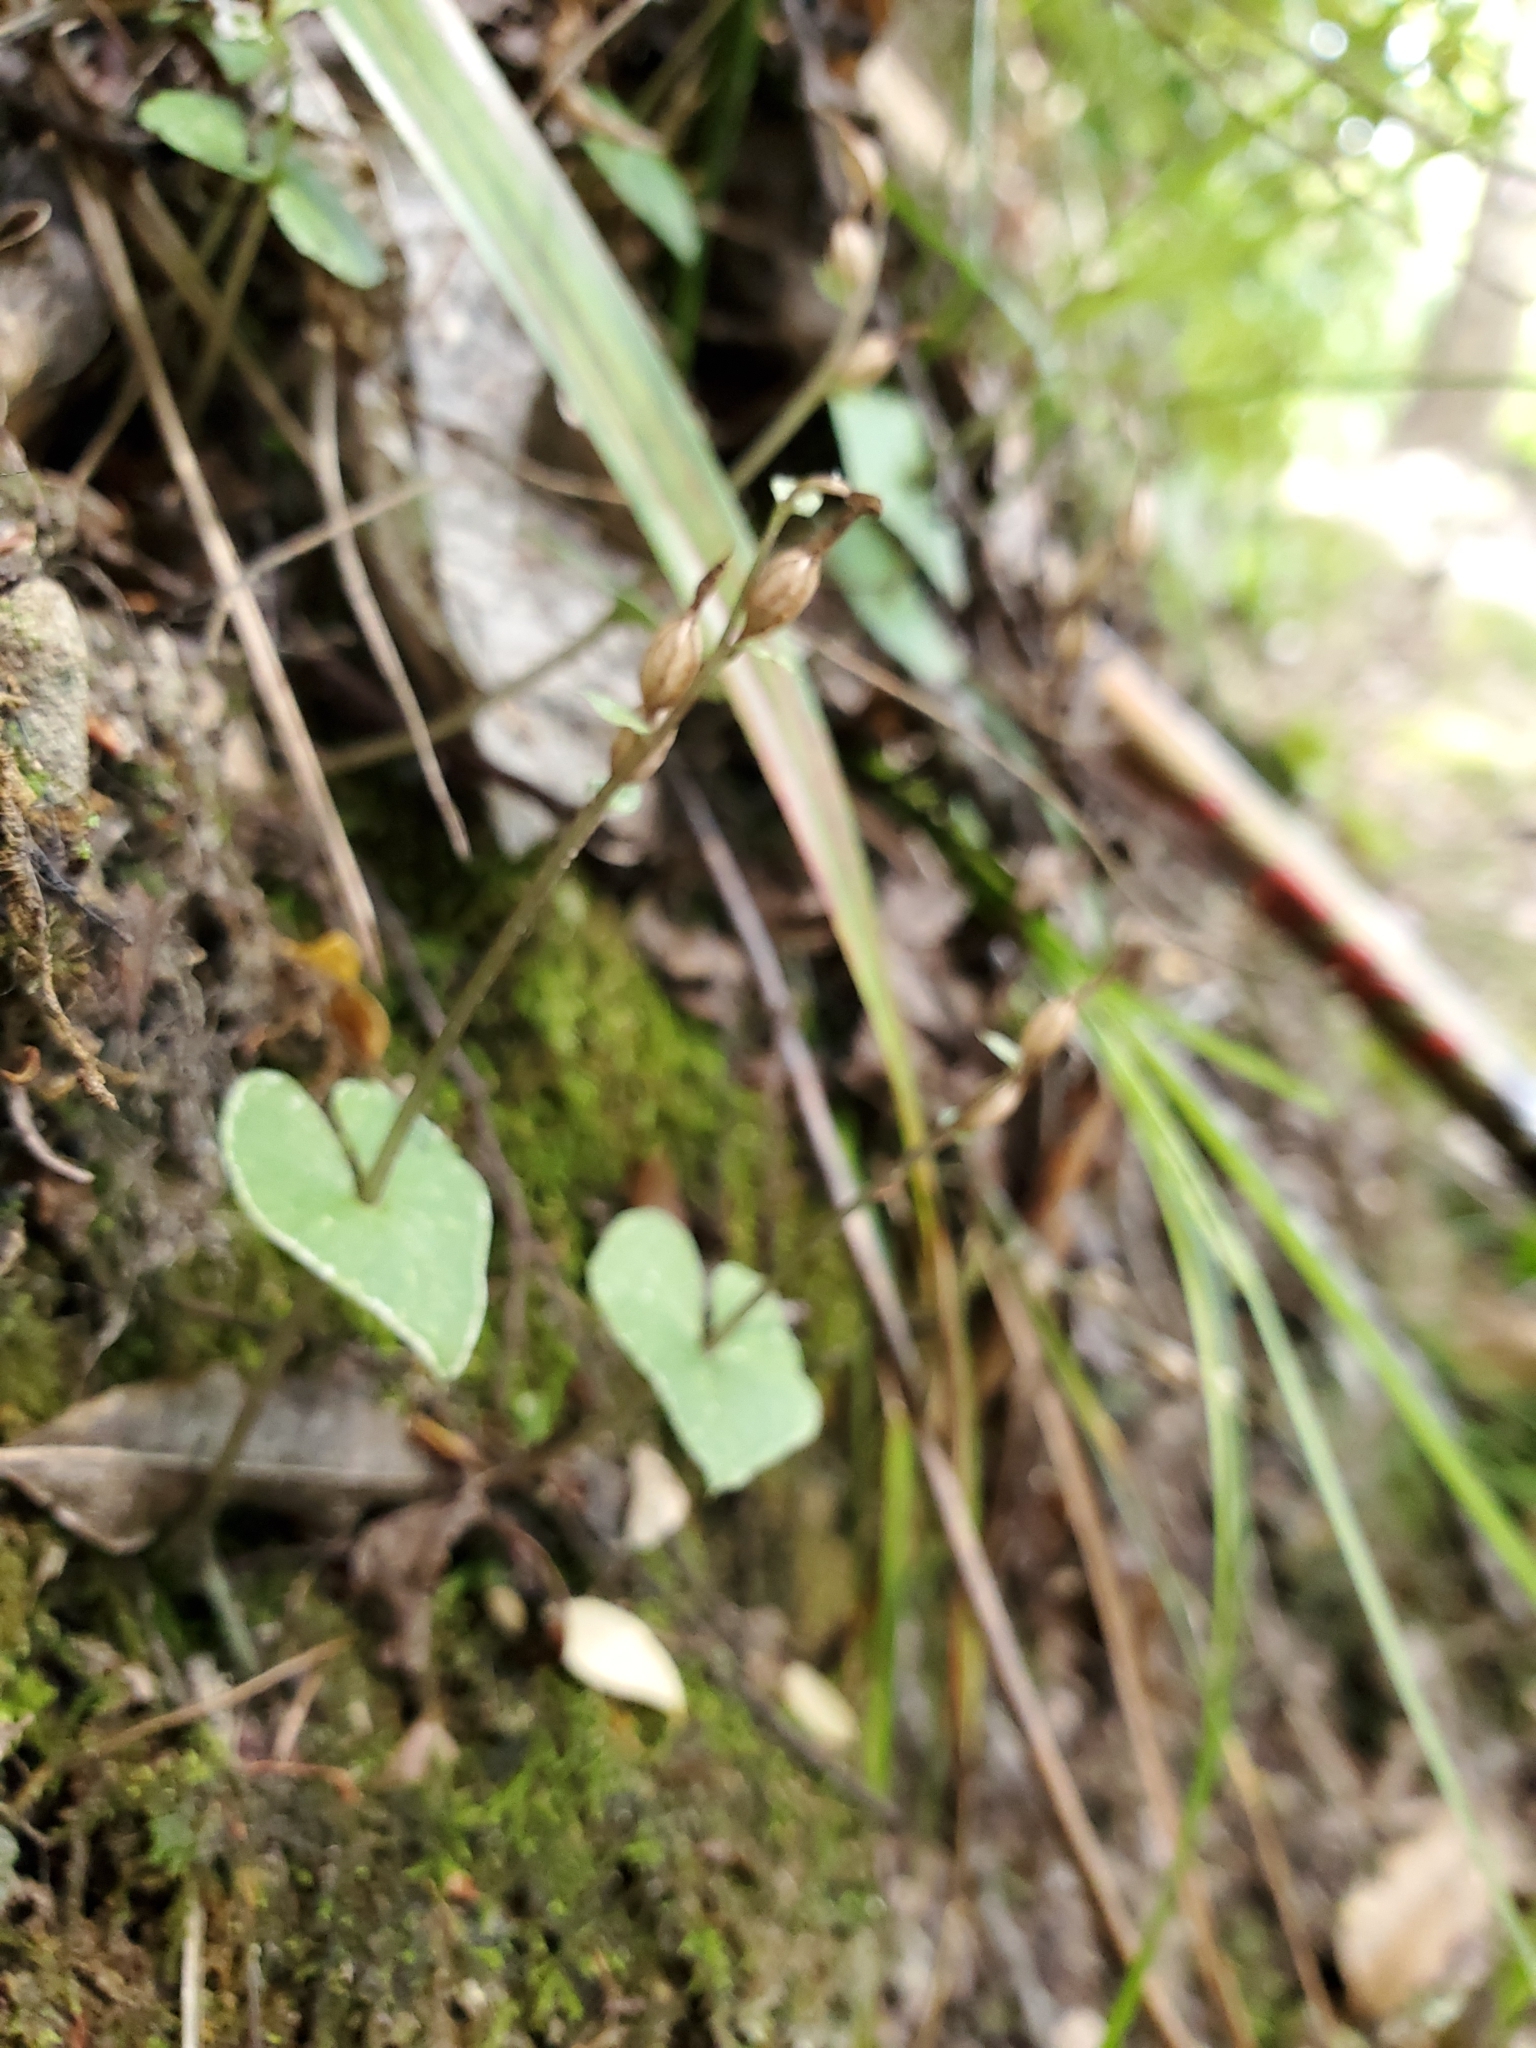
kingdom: Plantae
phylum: Tracheophyta
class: Liliopsida
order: Asparagales
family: Orchidaceae
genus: Acianthus
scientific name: Acianthus sinclairii
